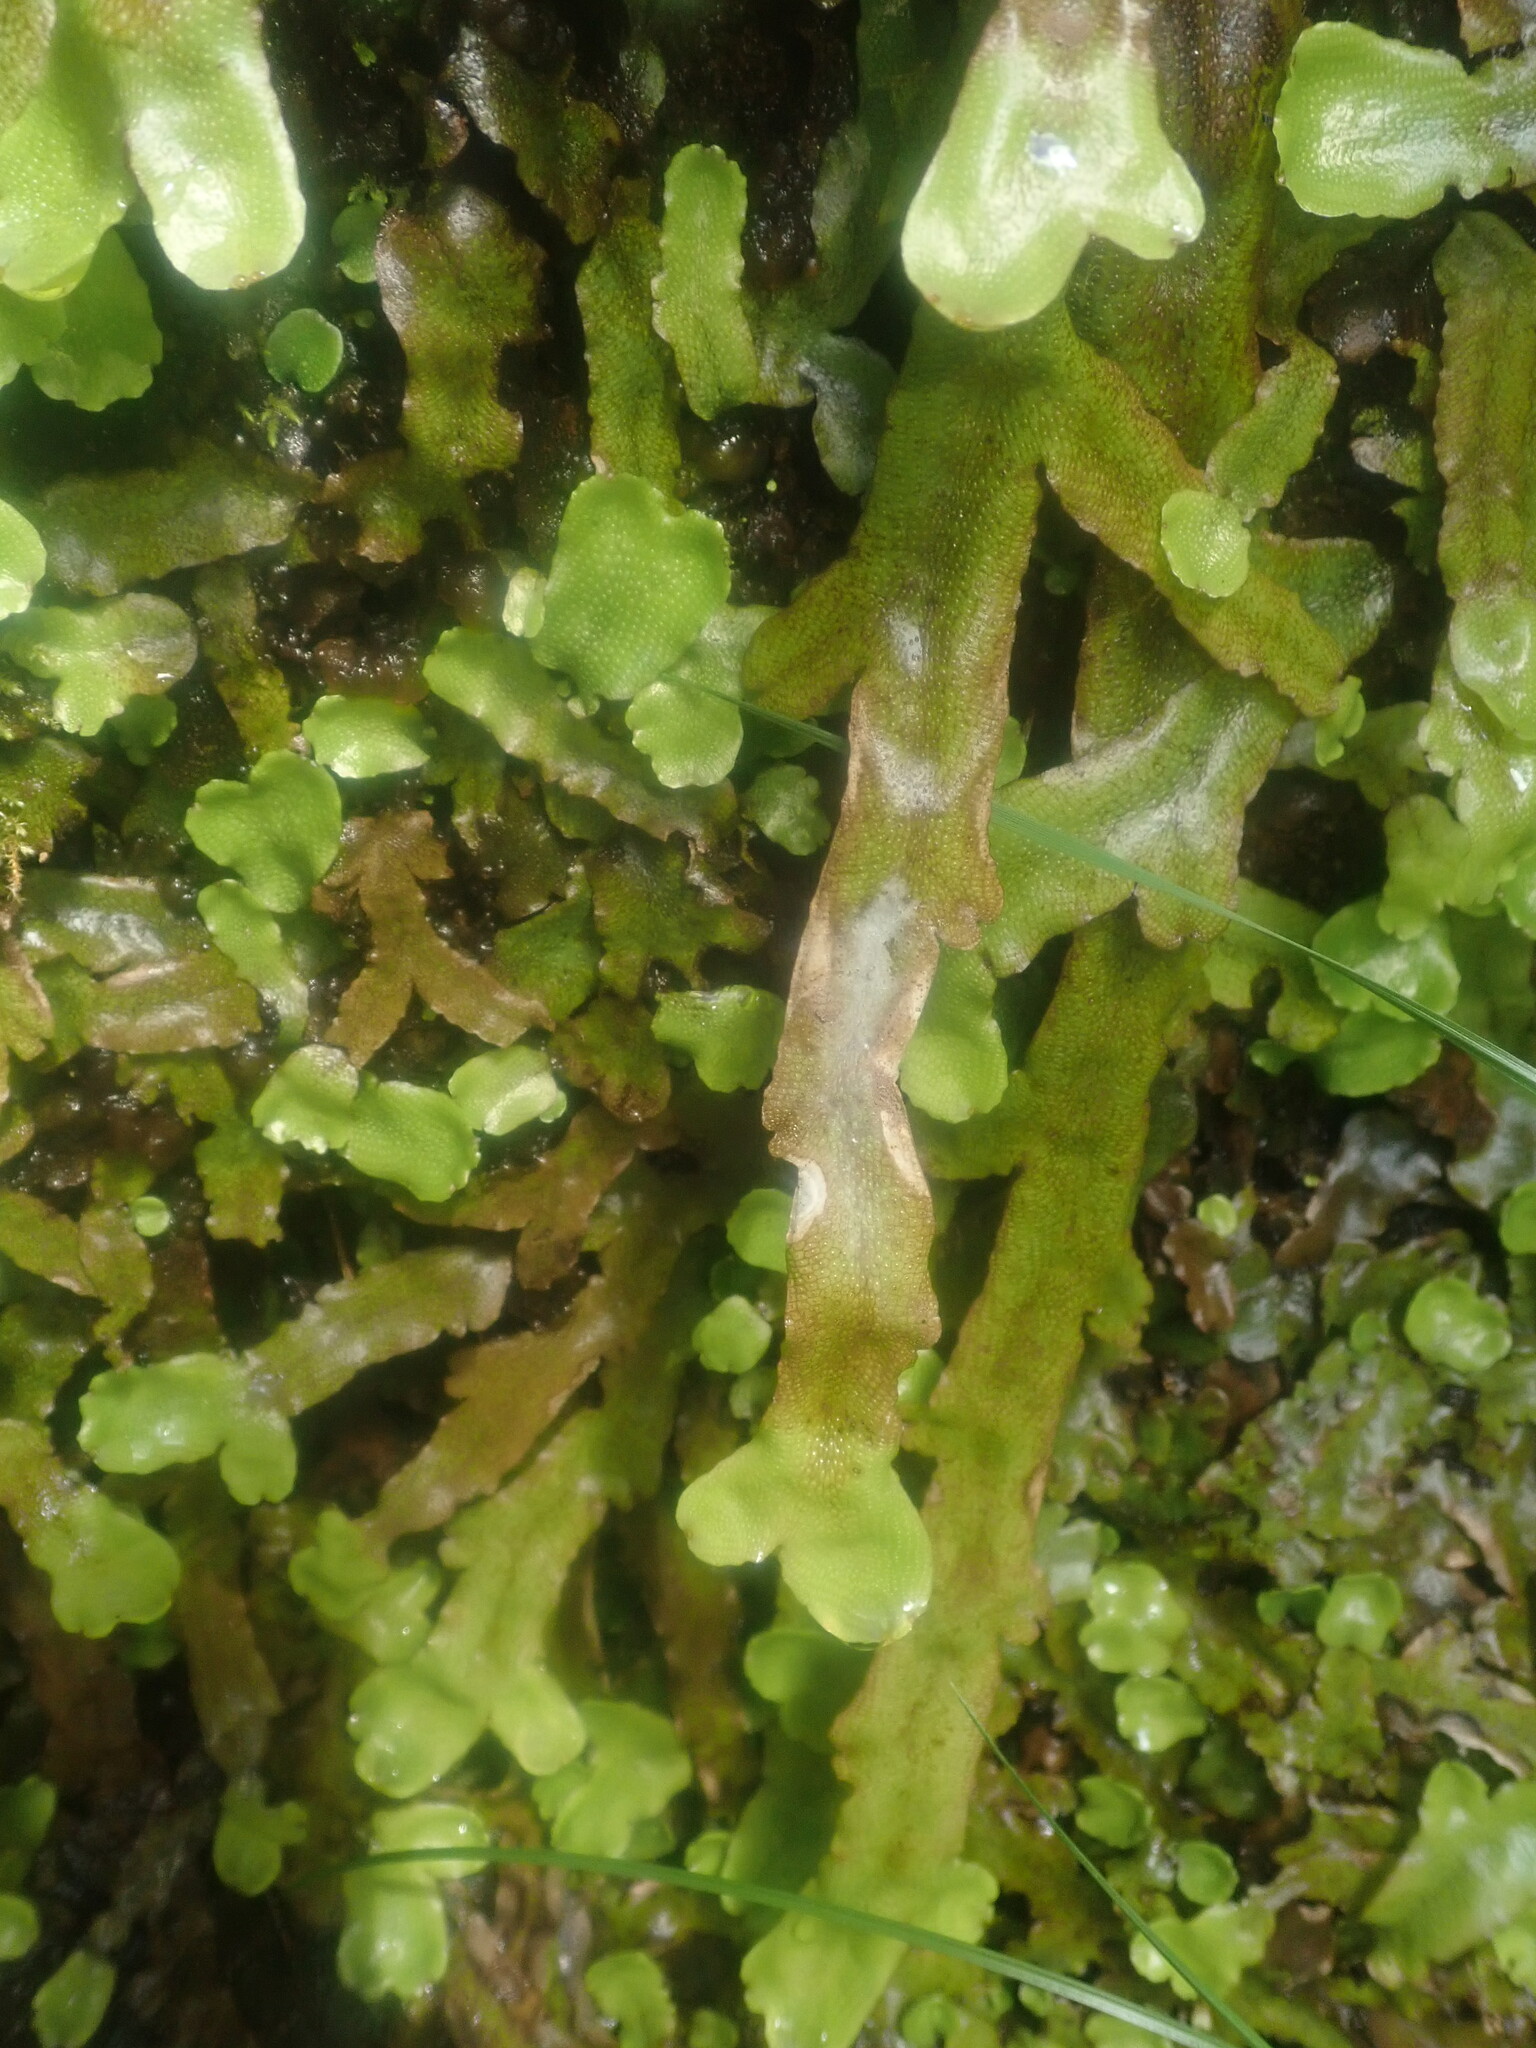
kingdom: Plantae
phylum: Marchantiophyta
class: Marchantiopsida
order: Marchantiales
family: Conocephalaceae
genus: Conocephalum
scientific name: Conocephalum conicum
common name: Great scented liverwort
